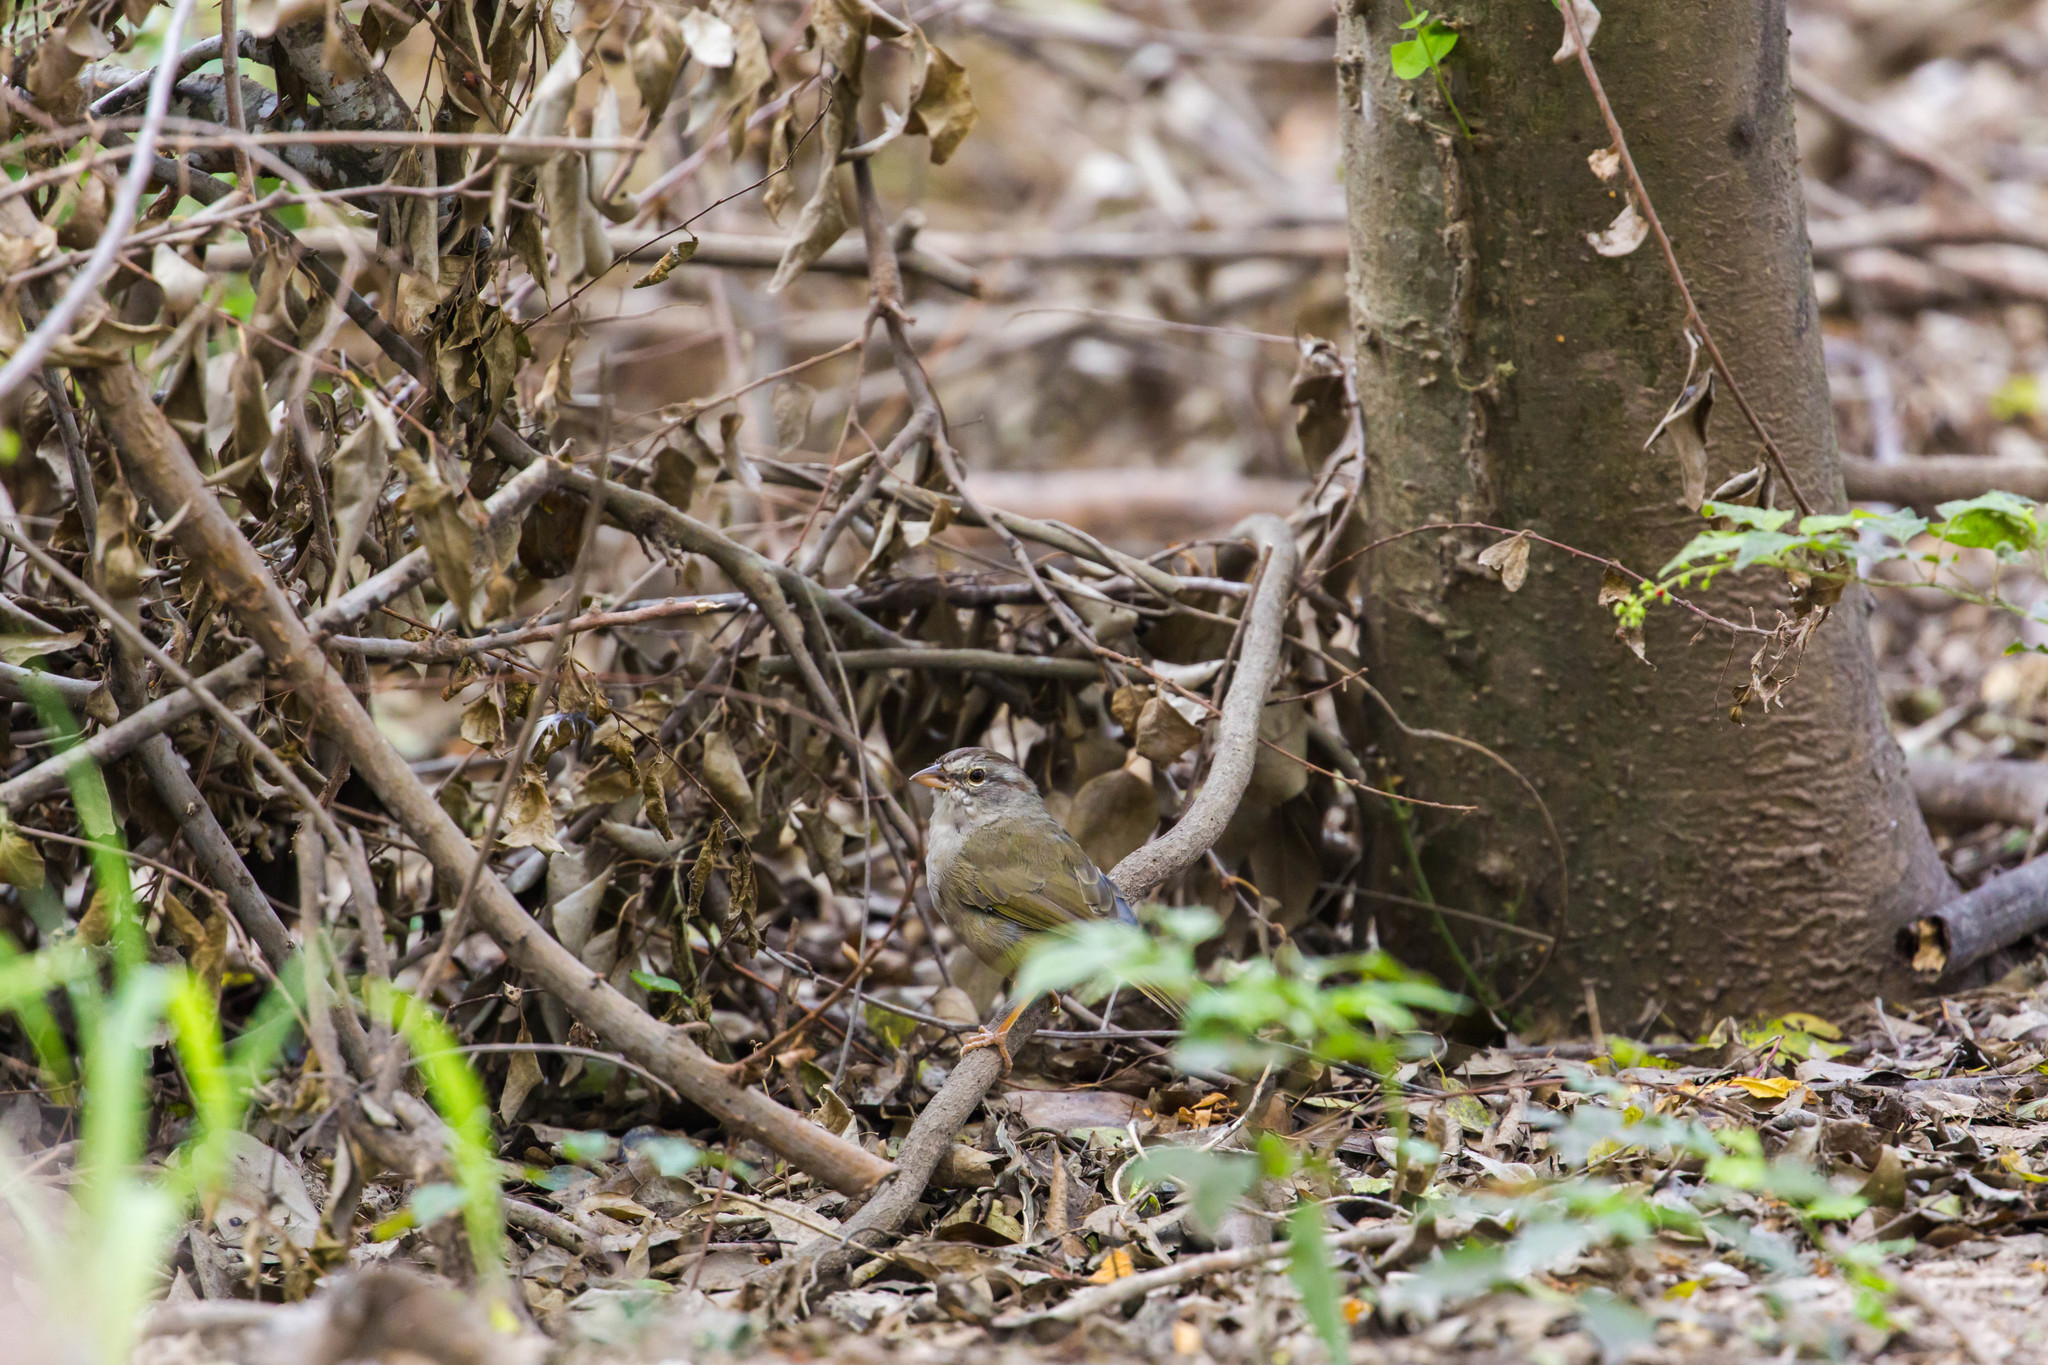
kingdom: Animalia
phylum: Chordata
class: Aves
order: Passeriformes
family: Passerellidae
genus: Arremonops
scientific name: Arremonops rufivirgatus
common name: Olive sparrow
